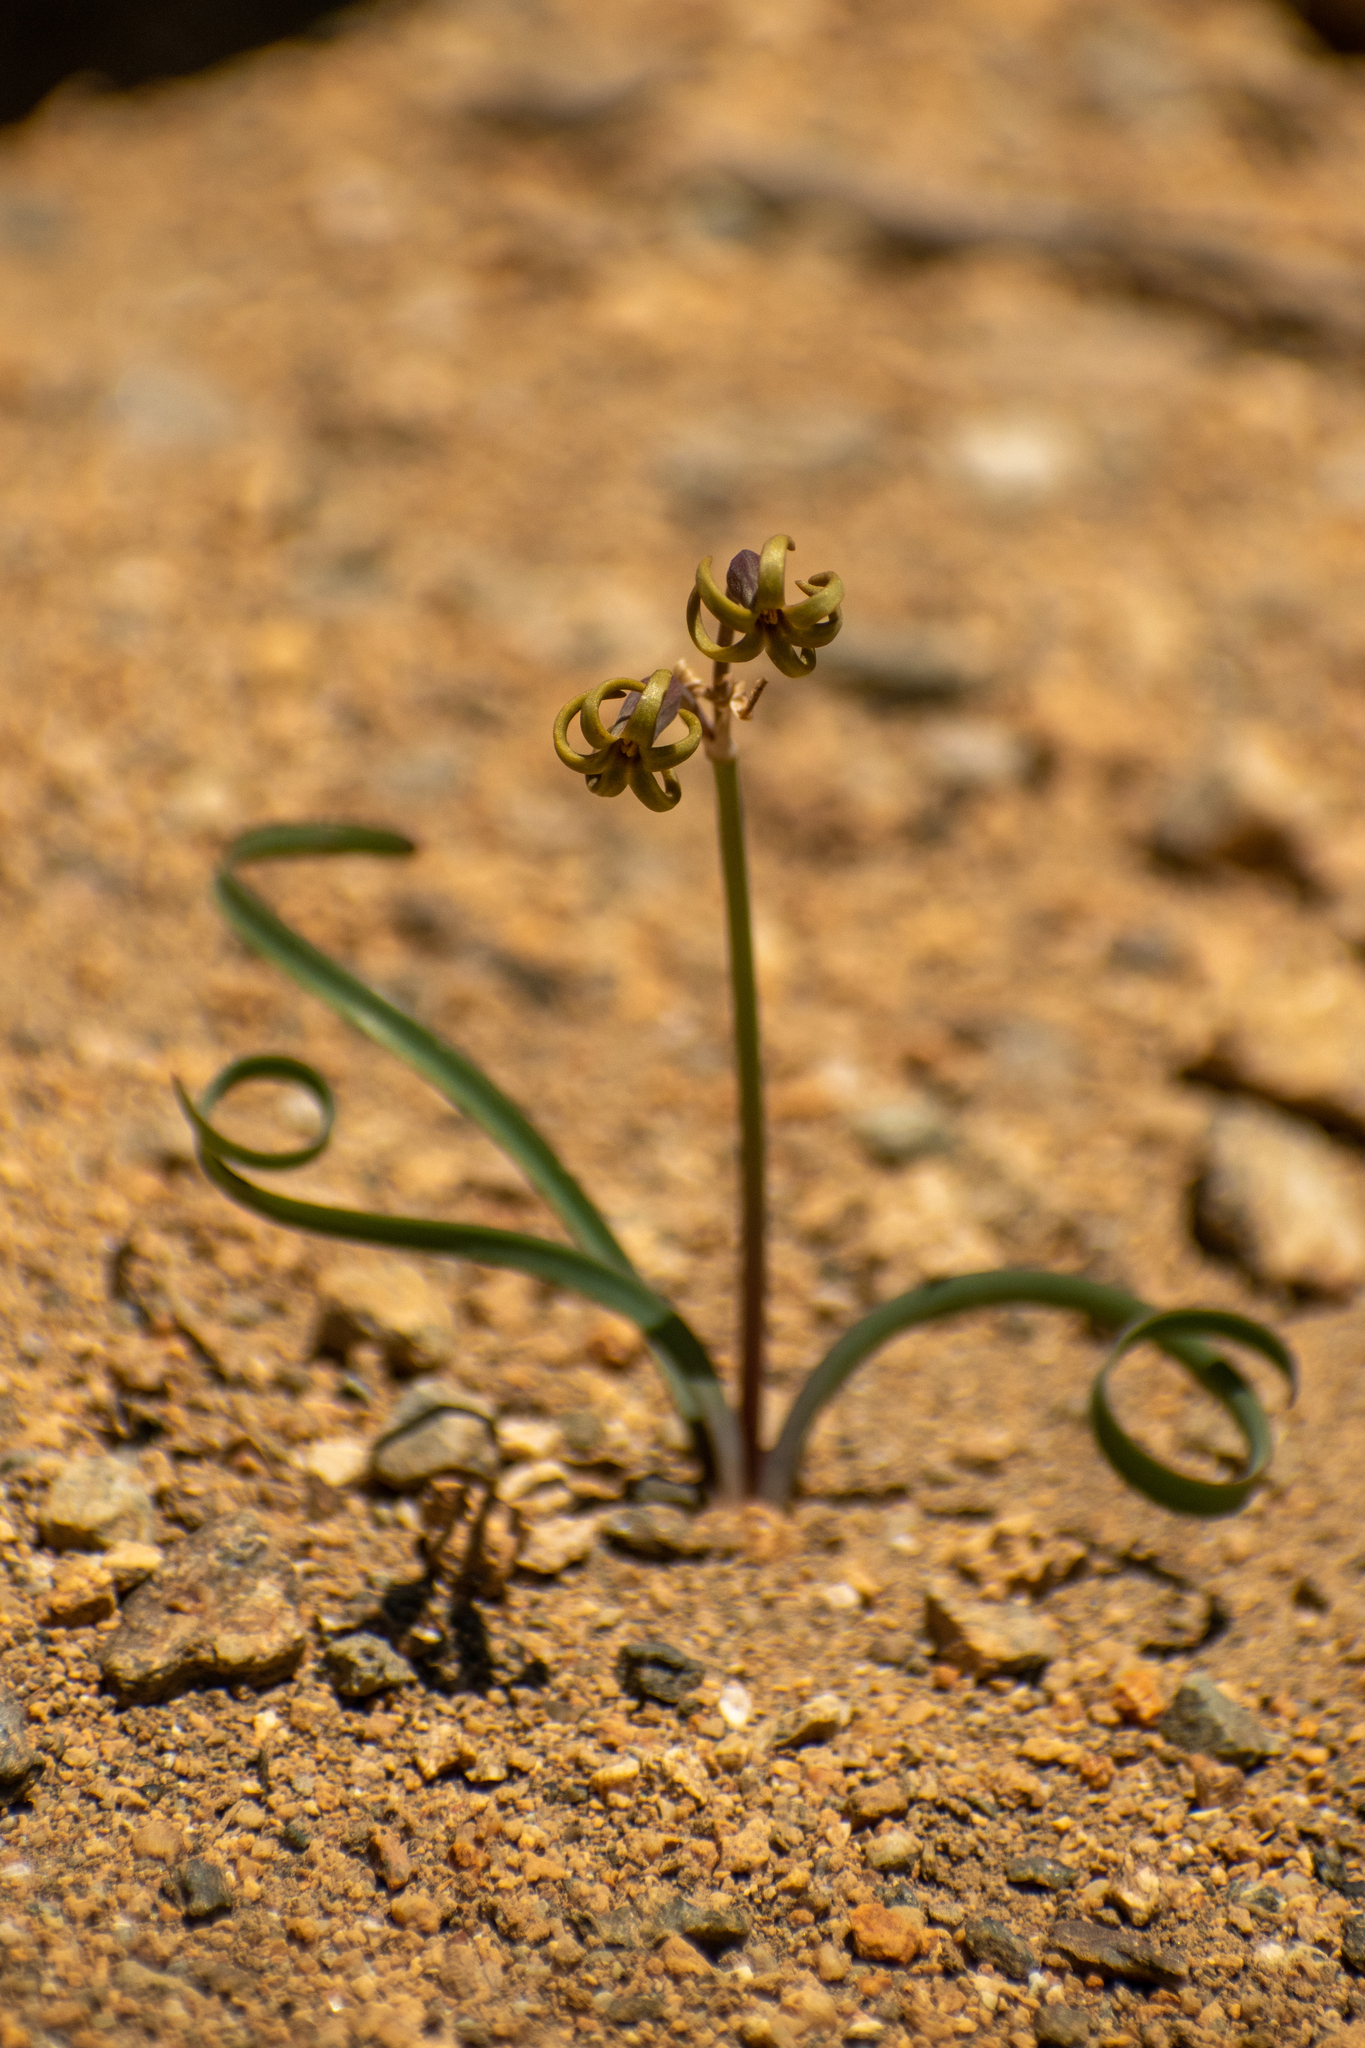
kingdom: Plantae
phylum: Tracheophyta
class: Liliopsida
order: Asparagales
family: Amaryllidaceae
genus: Tristagma
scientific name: Tristagma nivale
